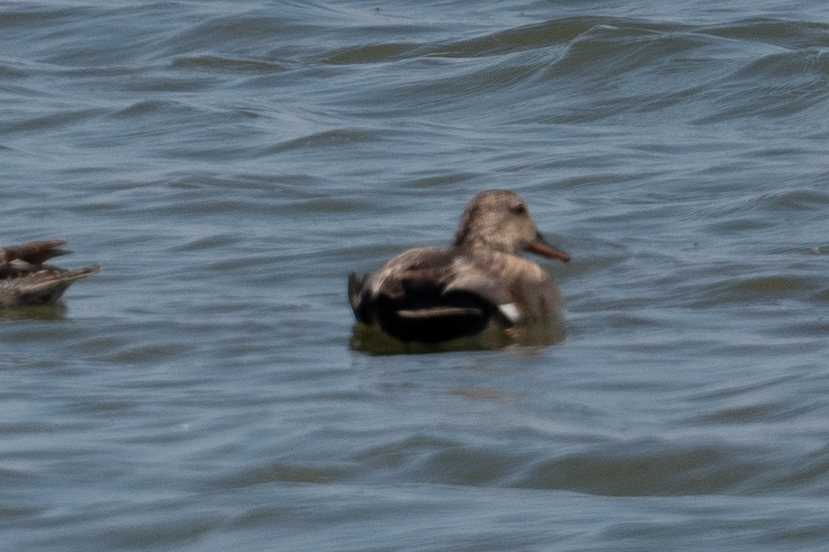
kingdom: Animalia
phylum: Chordata
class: Aves
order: Anseriformes
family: Anatidae
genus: Mareca
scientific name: Mareca strepera
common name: Gadwall
